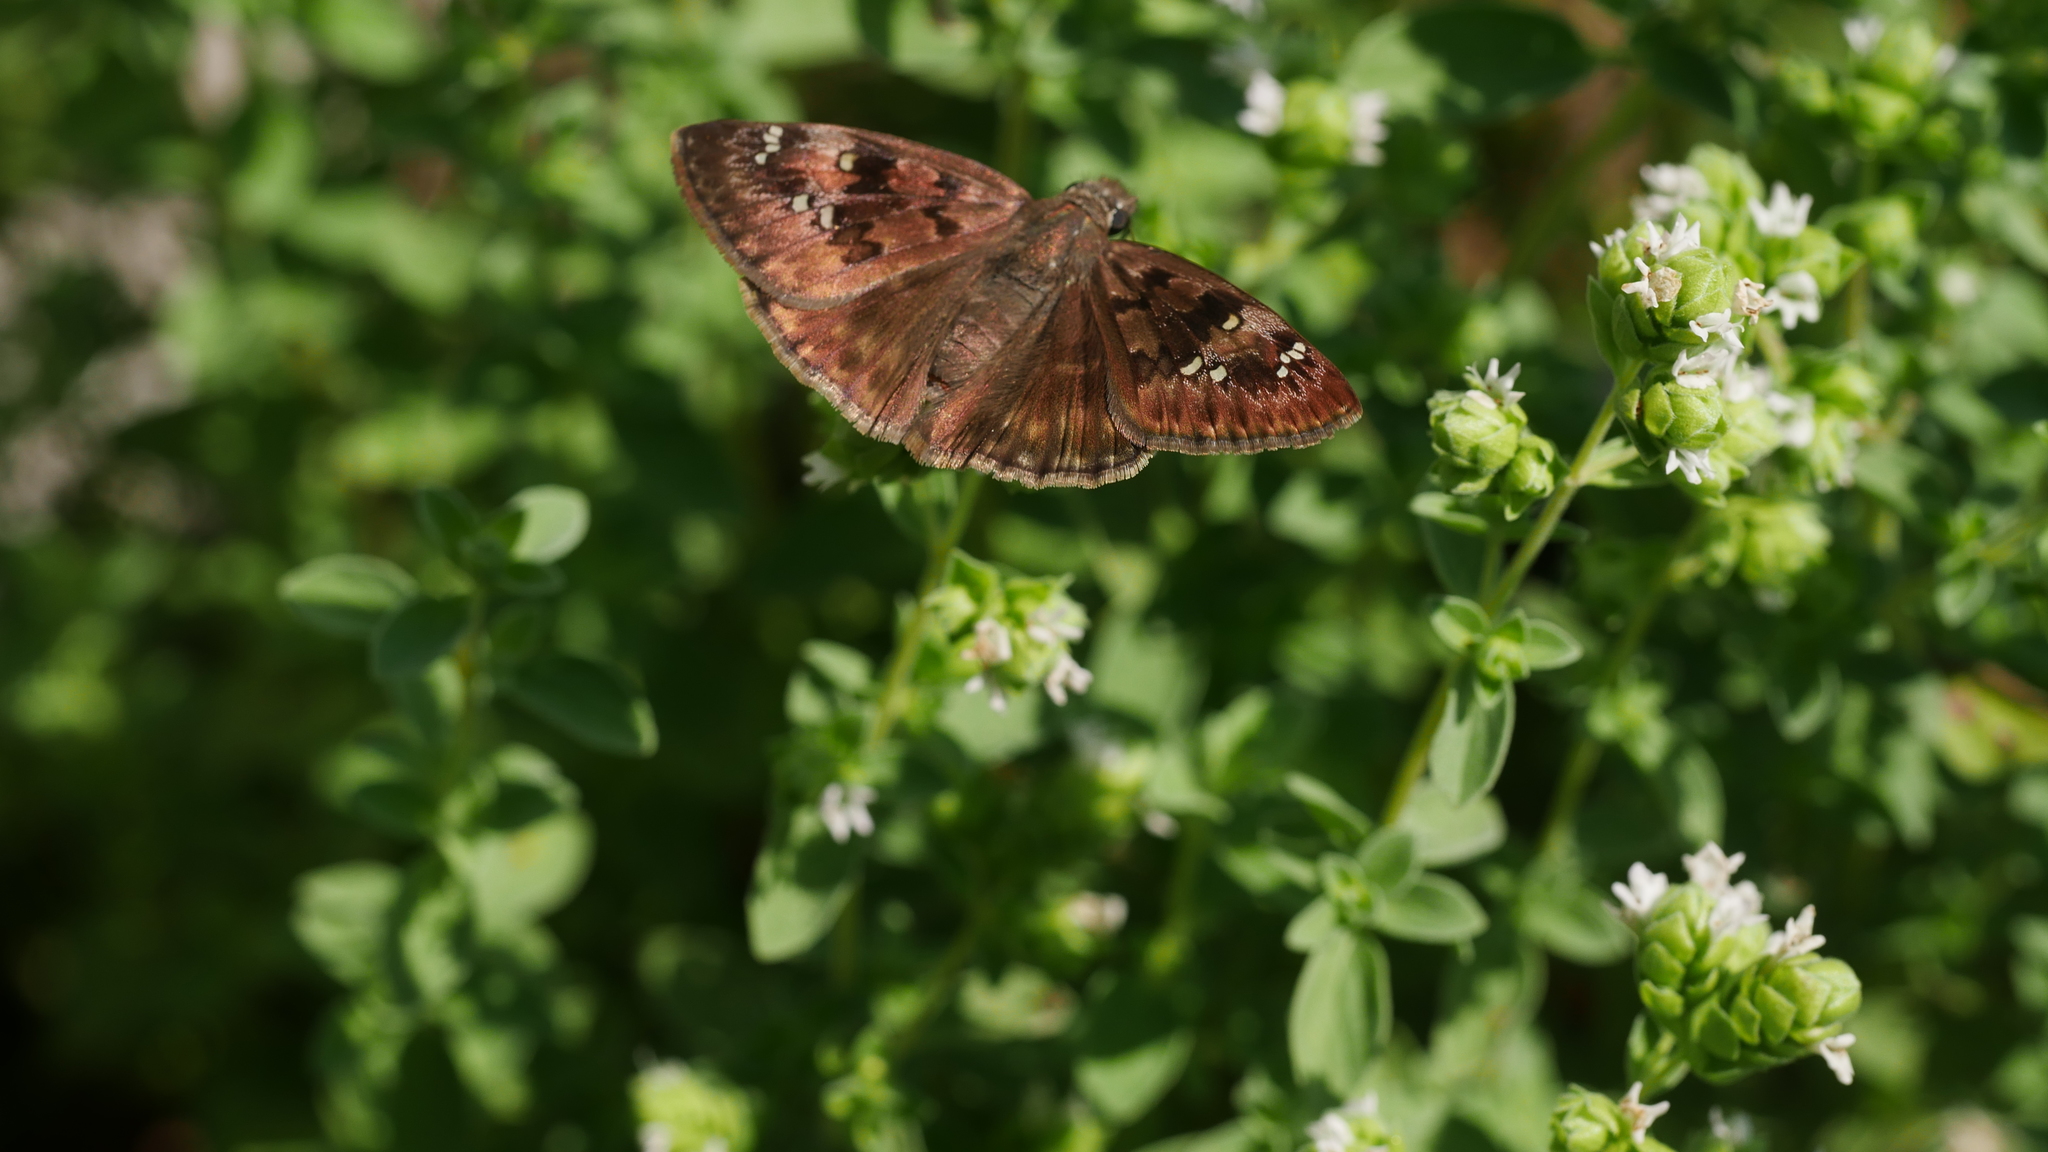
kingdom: Animalia
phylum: Arthropoda
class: Insecta
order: Lepidoptera
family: Hesperiidae
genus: Erynnis
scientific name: Erynnis horatius
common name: Horace's duskywing
